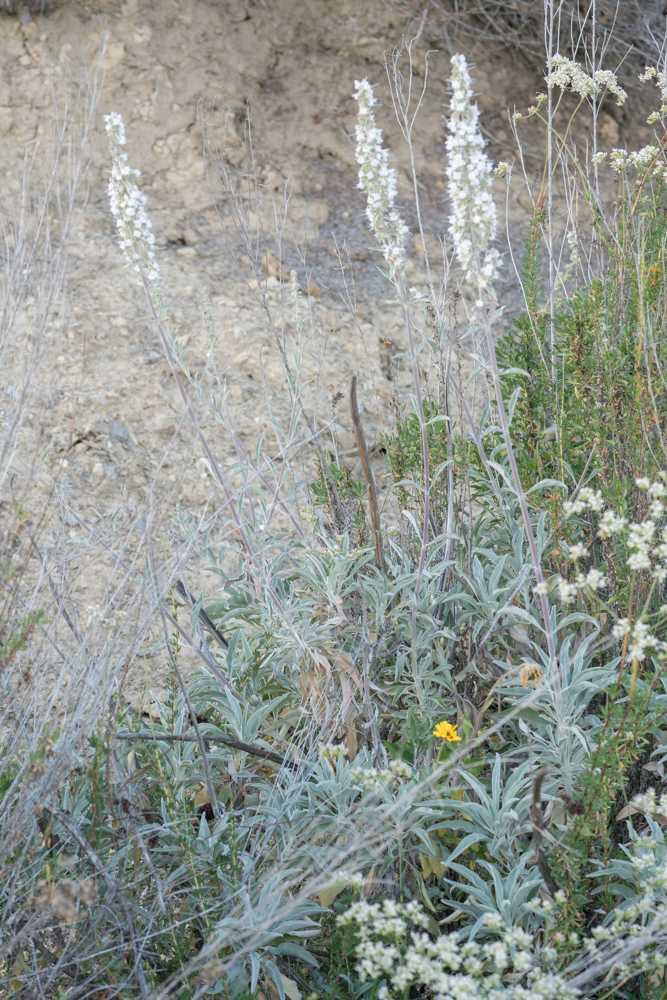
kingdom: Plantae
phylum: Tracheophyta
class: Magnoliopsida
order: Lamiales
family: Lamiaceae
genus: Salvia
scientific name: Salvia apiana
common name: White sage
